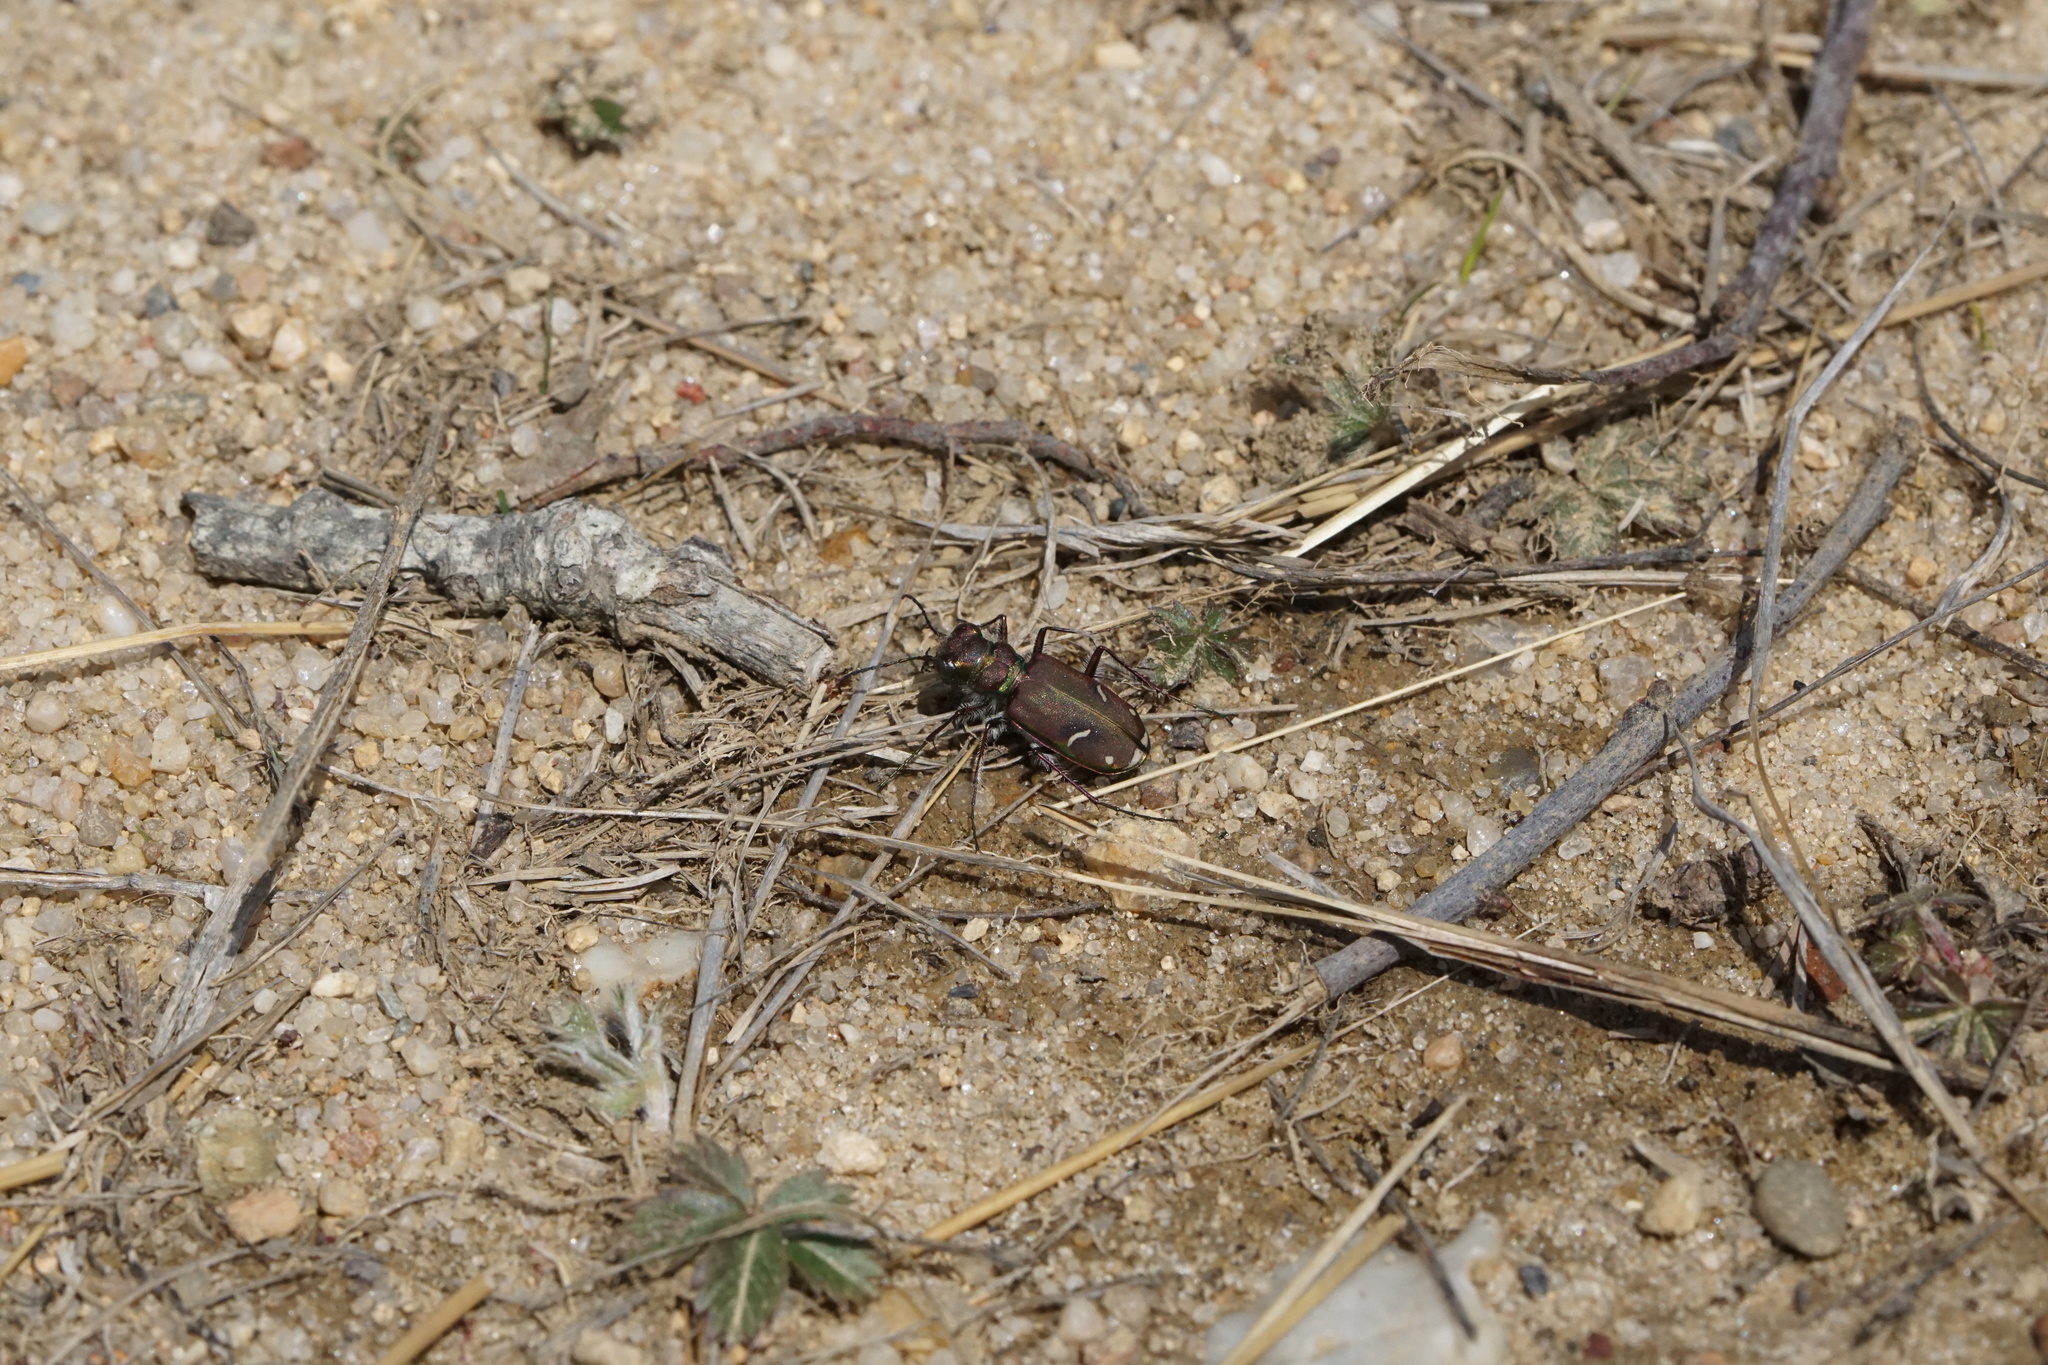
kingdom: Animalia
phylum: Arthropoda
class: Insecta
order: Coleoptera
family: Carabidae
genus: Cicindela
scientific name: Cicindela purpurea
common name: Cow path tiger beetle
